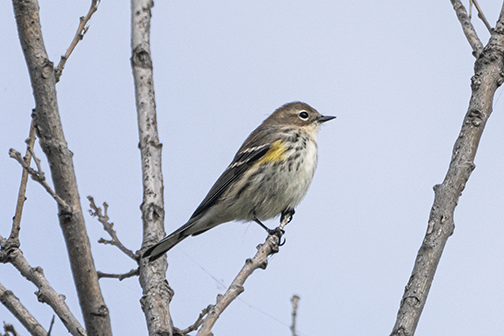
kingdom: Animalia
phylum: Chordata
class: Aves
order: Passeriformes
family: Parulidae
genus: Setophaga
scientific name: Setophaga coronata
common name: Myrtle warbler
